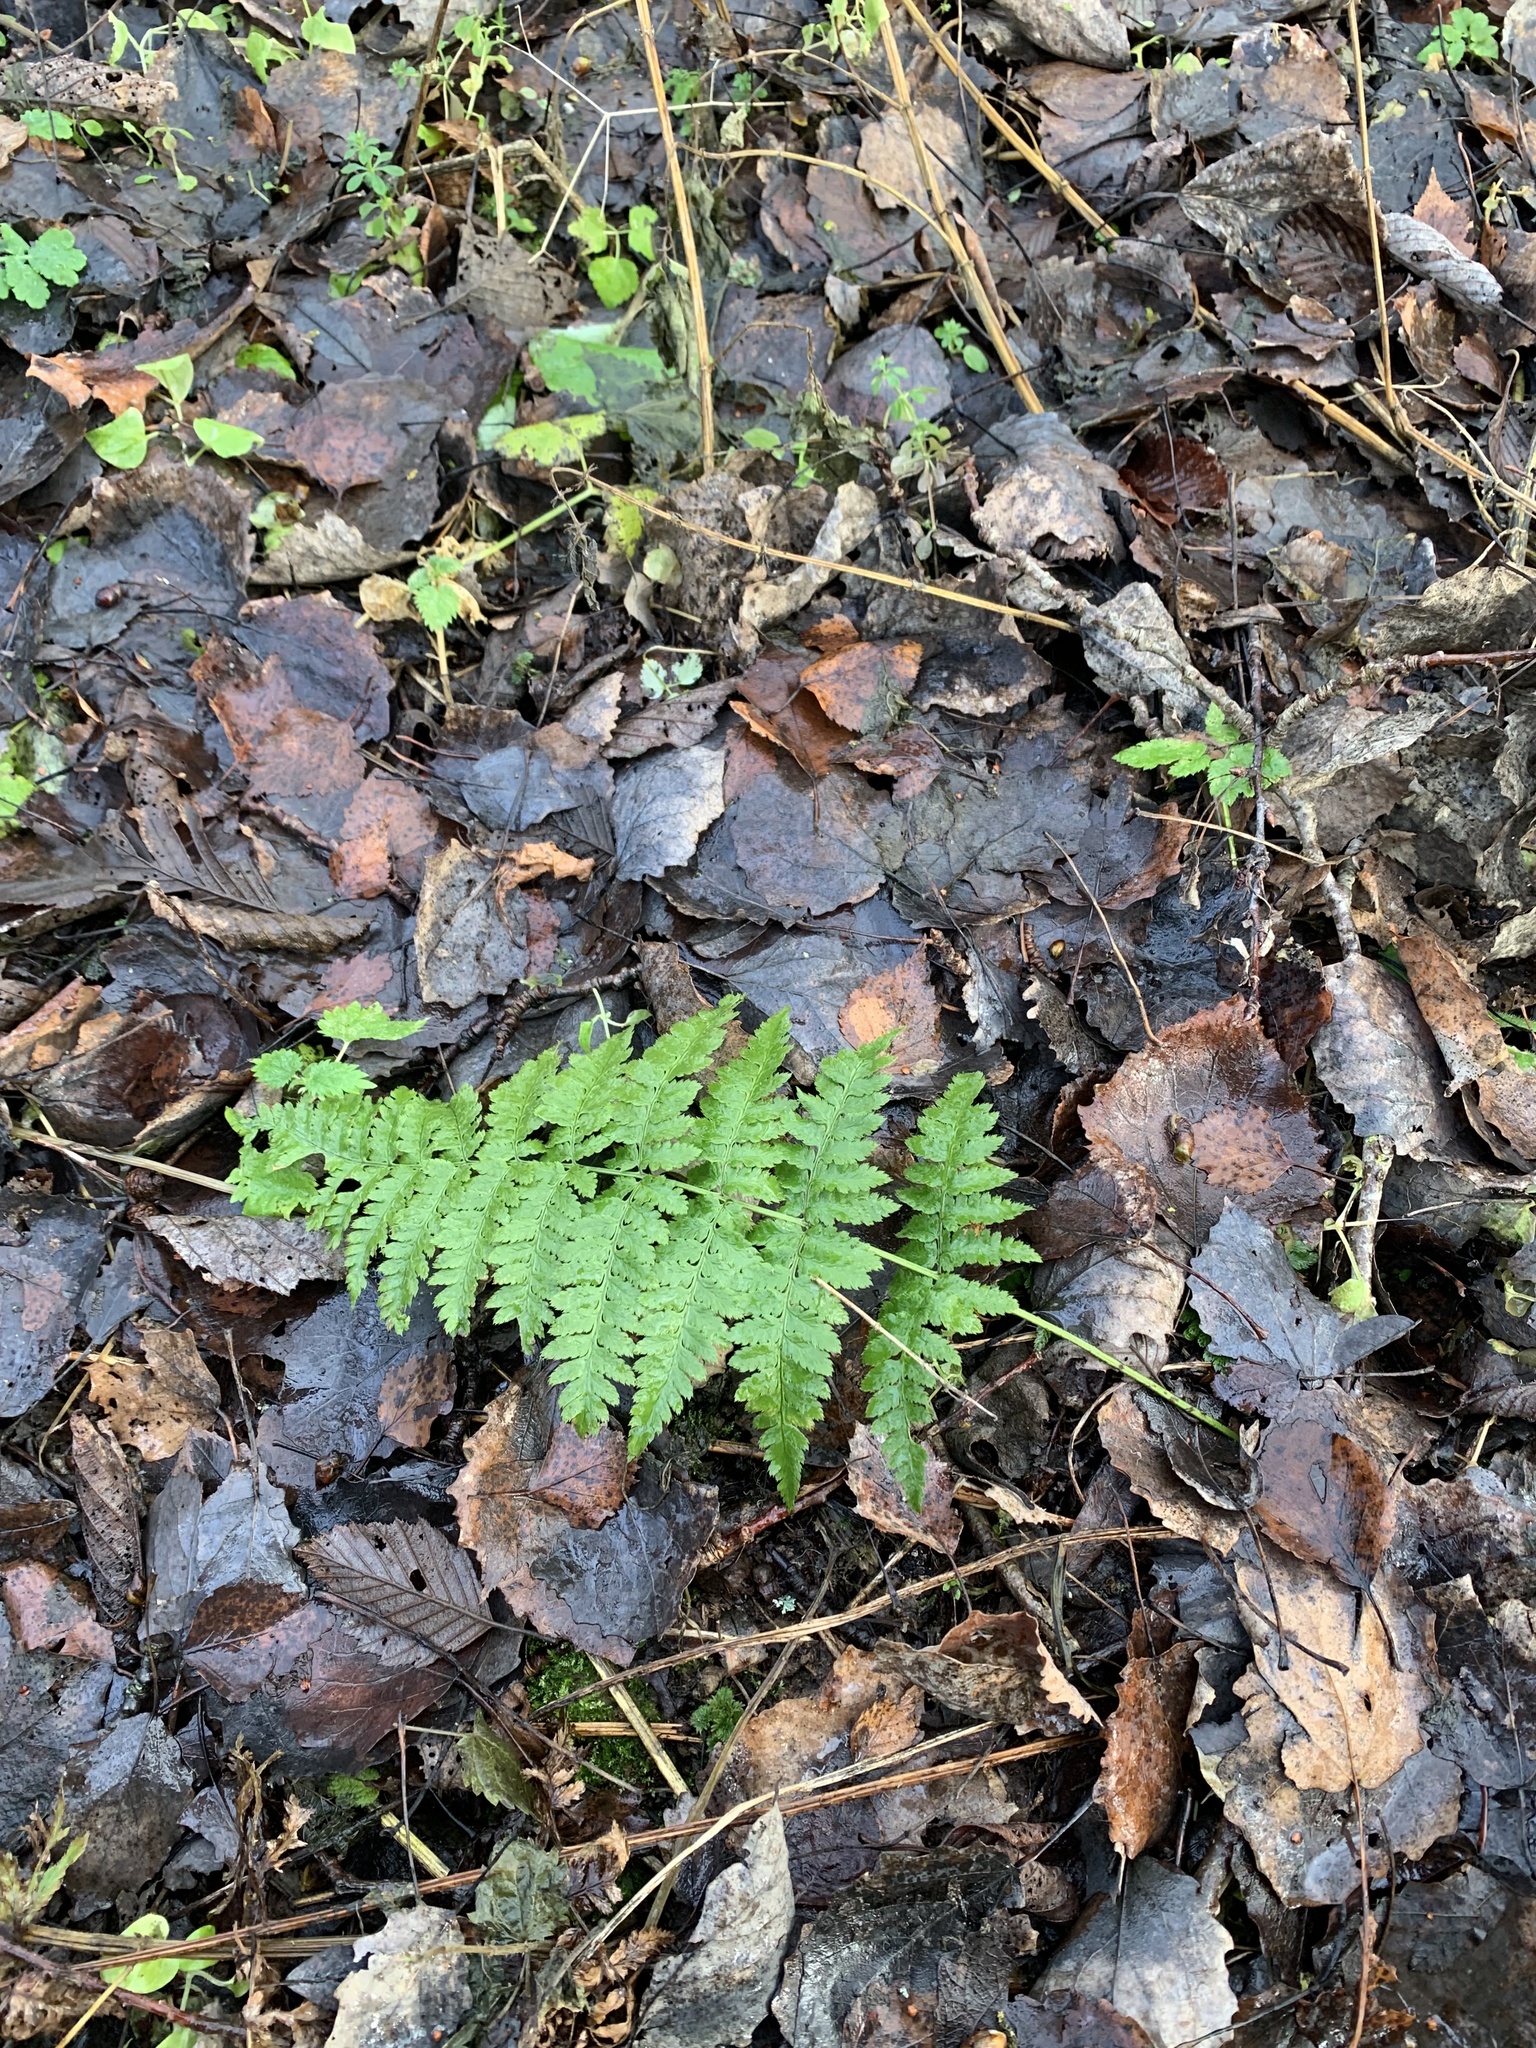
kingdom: Plantae
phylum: Tracheophyta
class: Polypodiopsida
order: Polypodiales
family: Dryopteridaceae
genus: Dryopteris
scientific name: Dryopteris carthusiana
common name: Narrow buckler-fern
